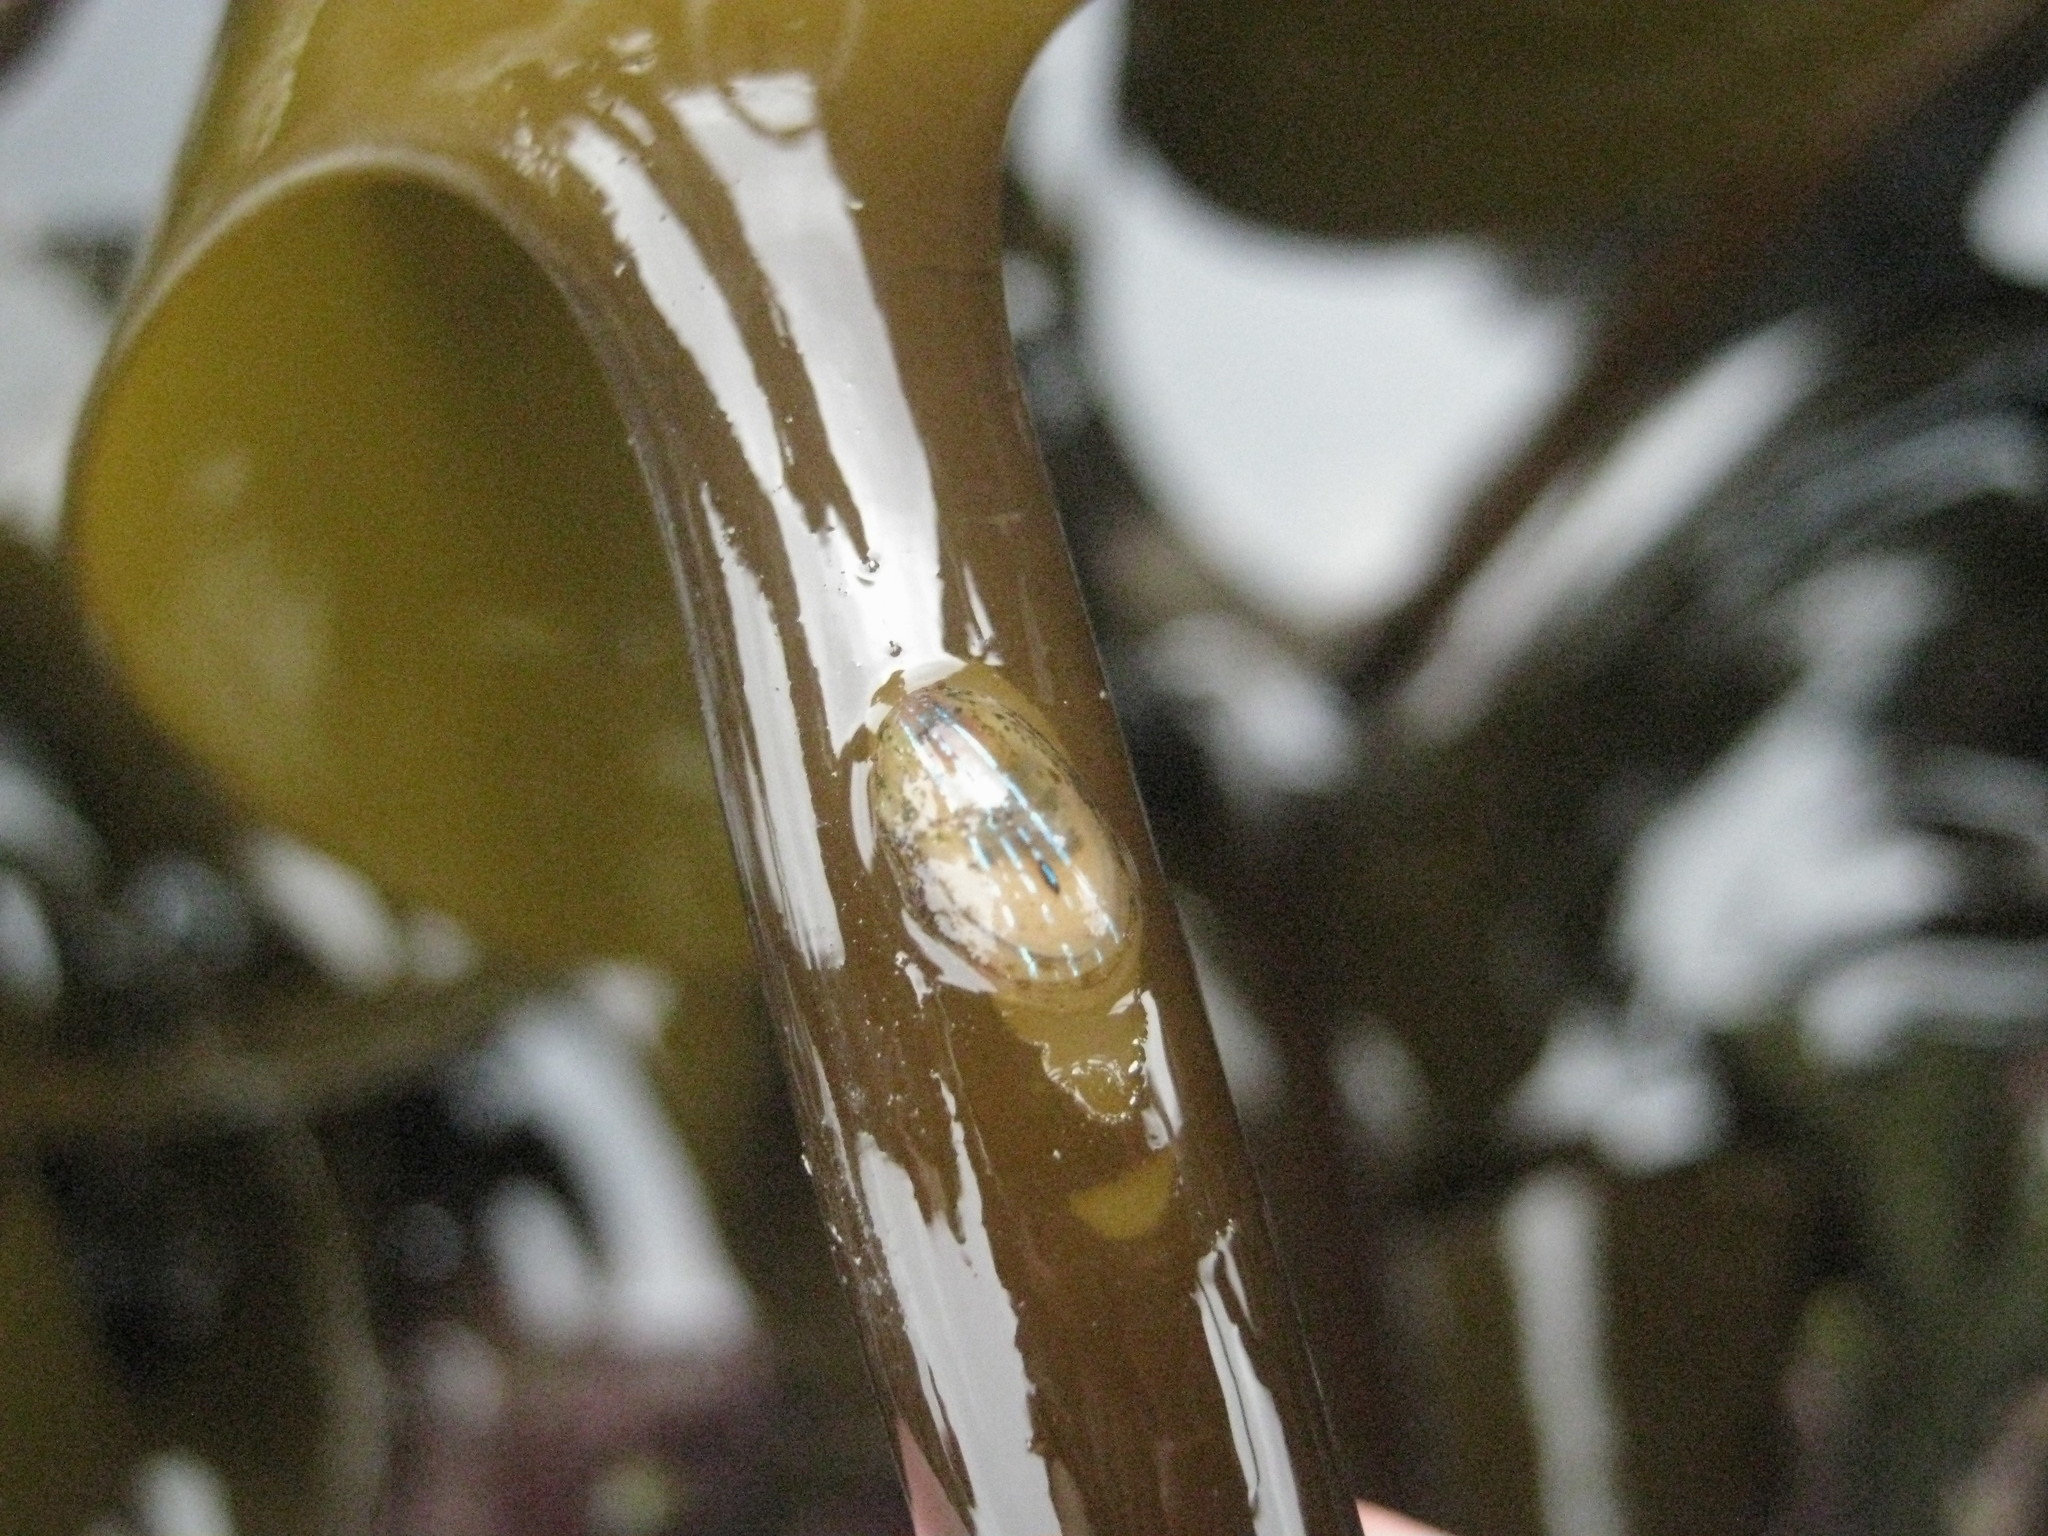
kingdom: Animalia
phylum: Mollusca
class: Gastropoda
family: Patellidae
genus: Patella
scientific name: Patella pellucida
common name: Blue-rayed limpet
